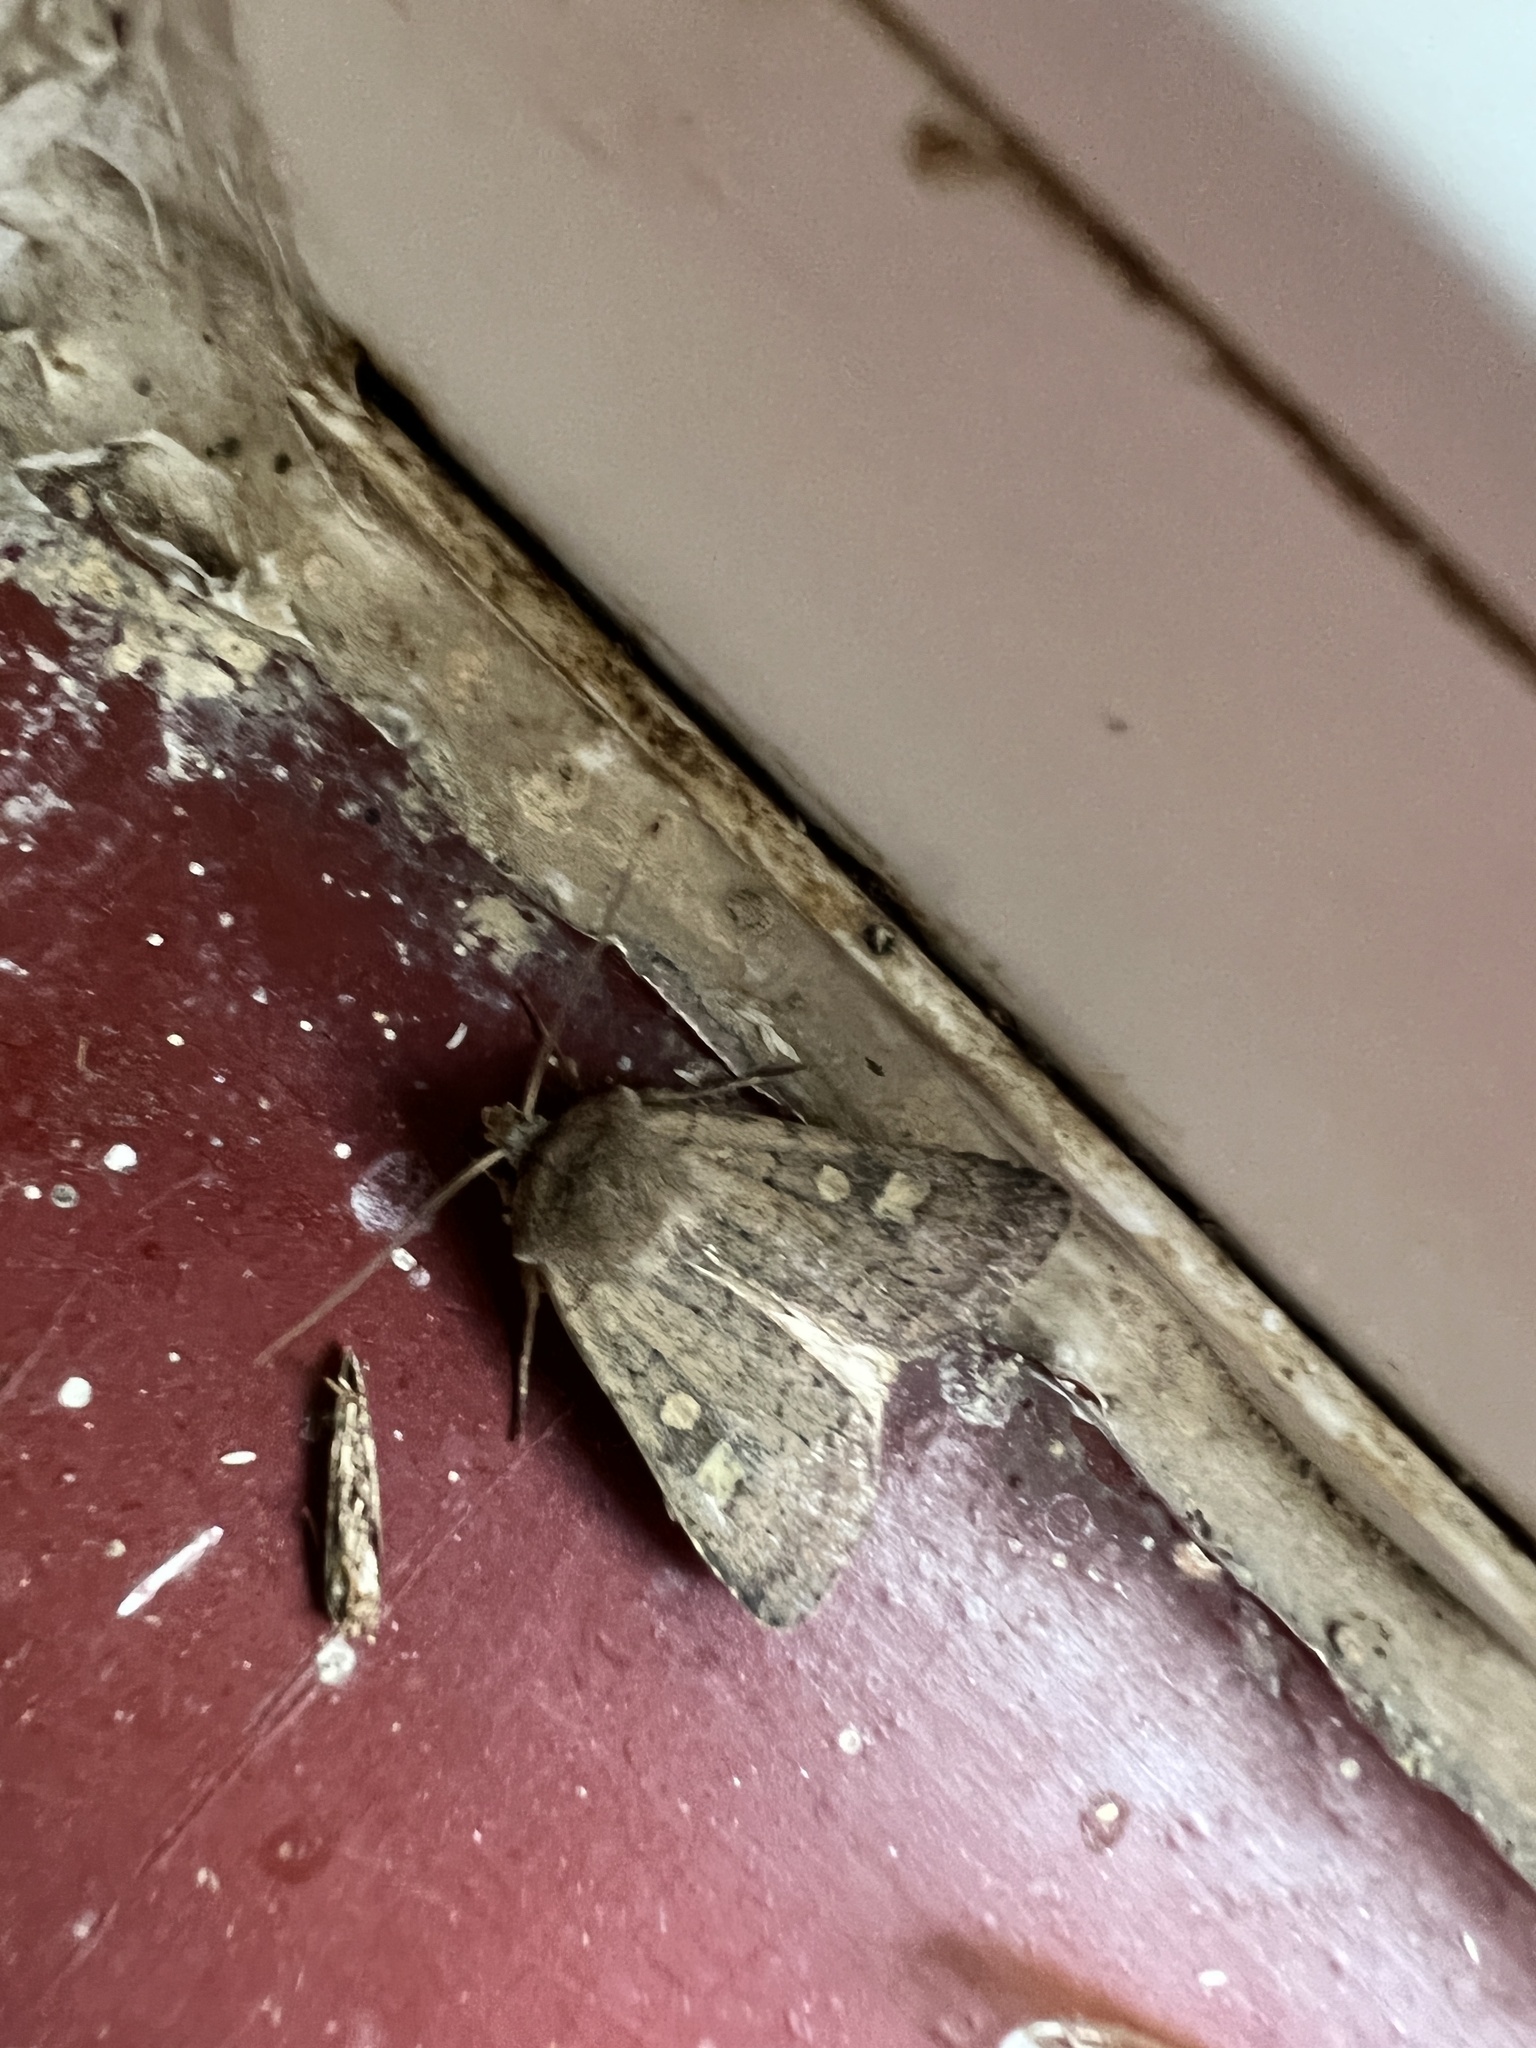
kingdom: Animalia
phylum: Arthropoda
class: Insecta
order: Lepidoptera
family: Noctuidae
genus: Xestia
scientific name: Xestia xanthographa
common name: Square-spot rustic
